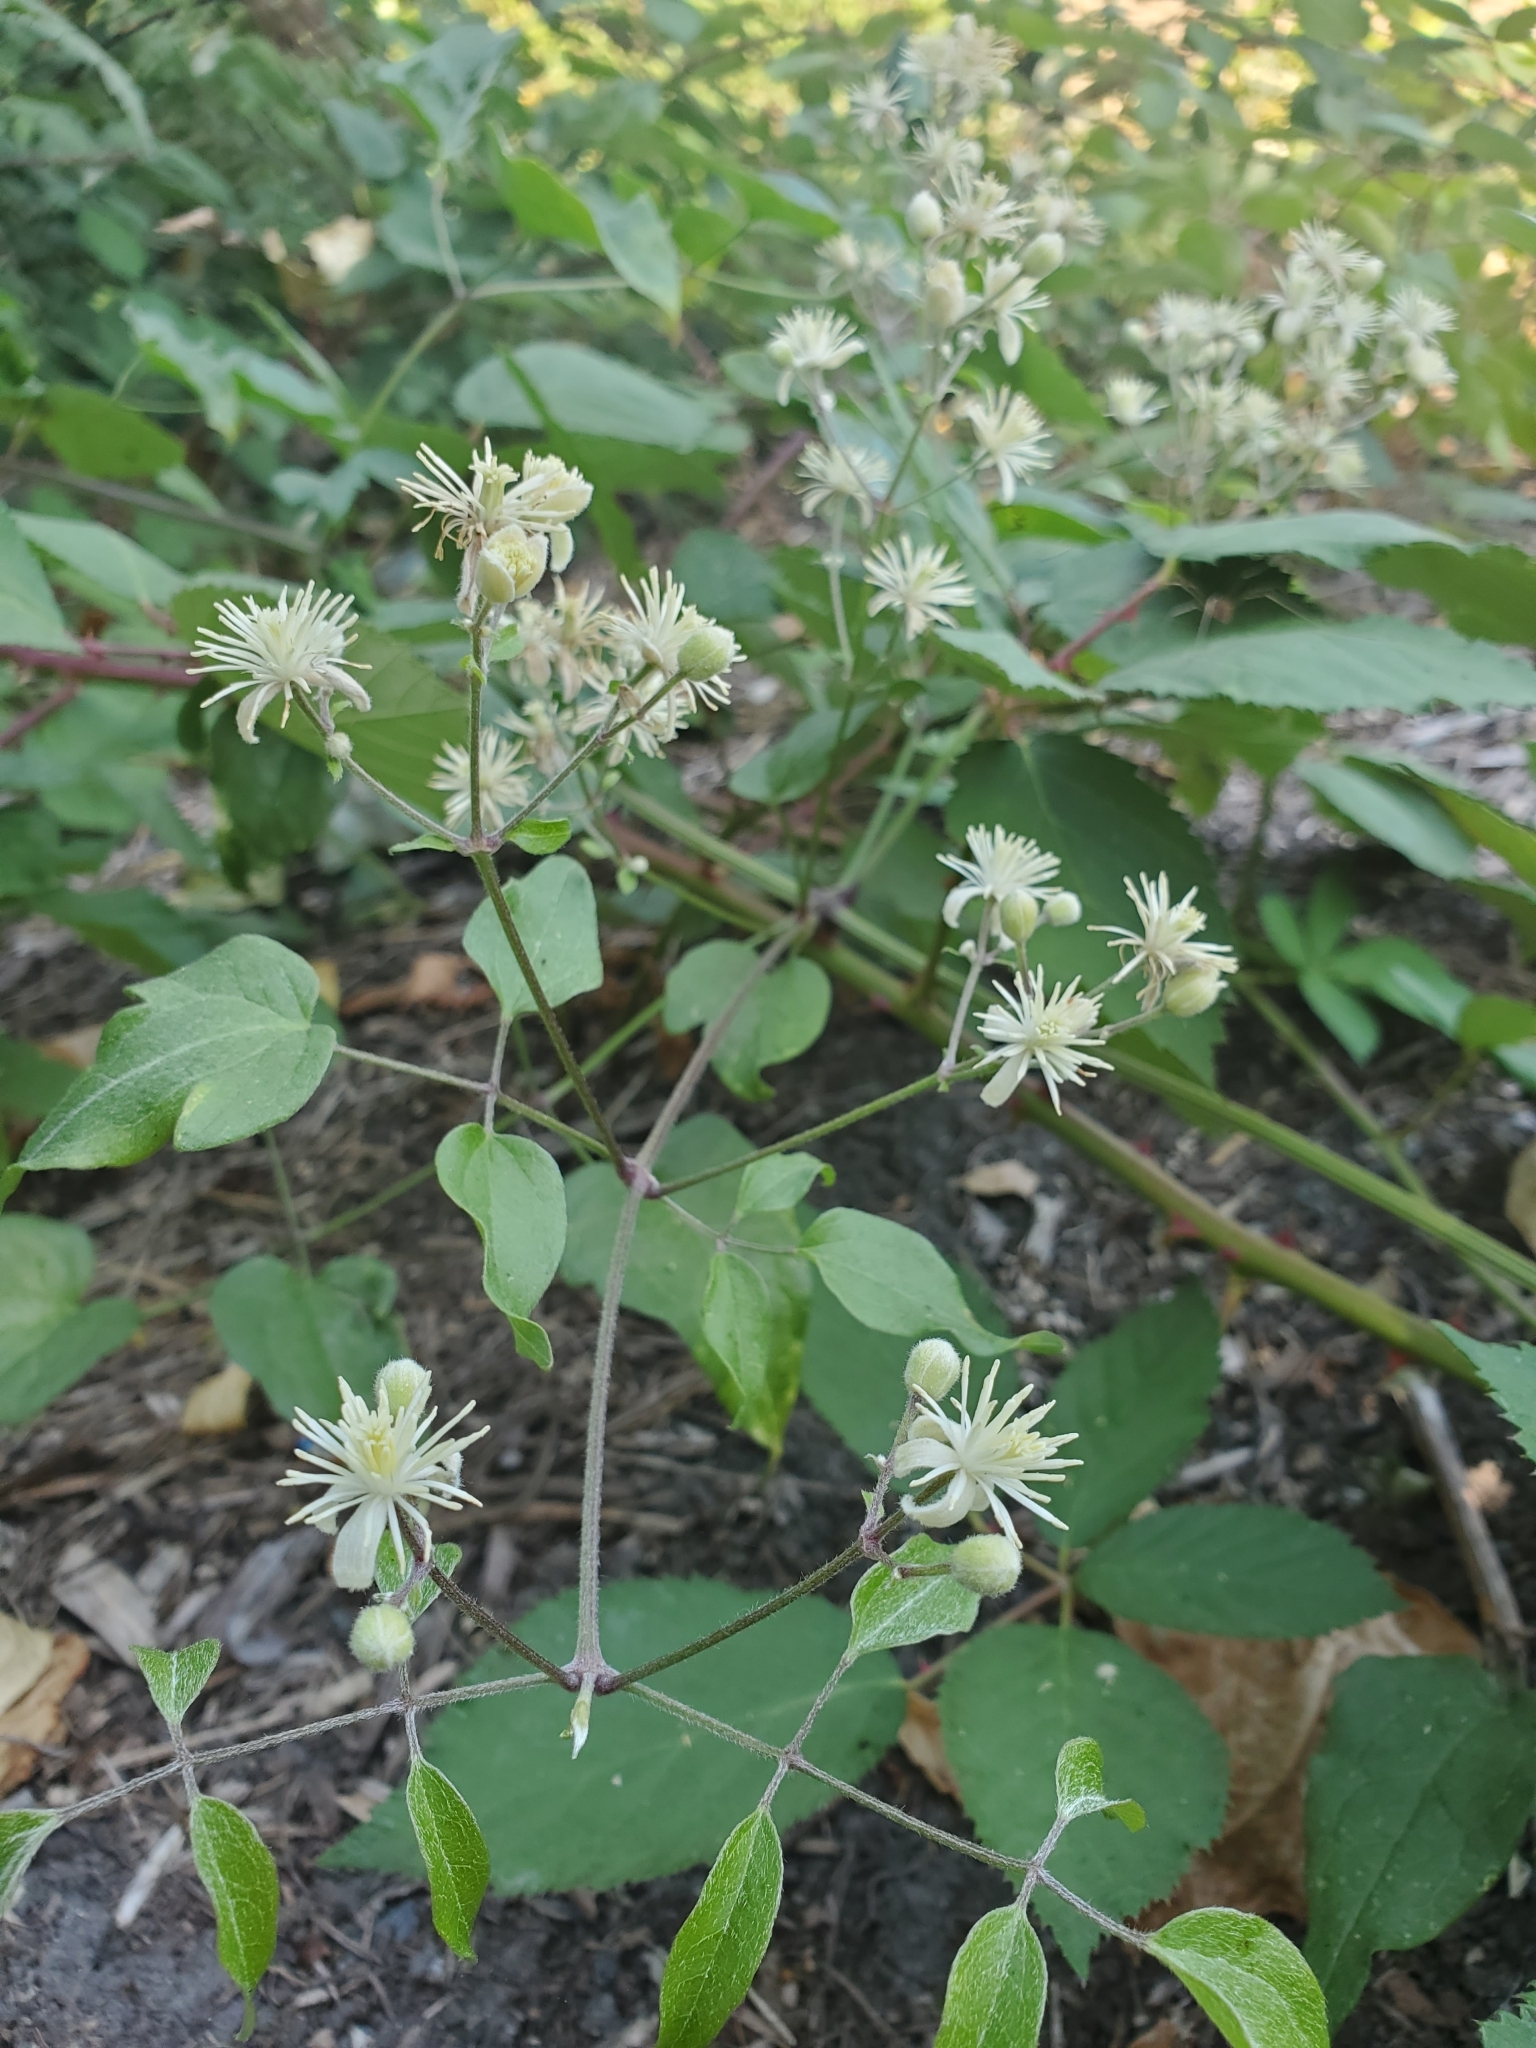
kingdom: Plantae
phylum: Tracheophyta
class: Magnoliopsida
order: Ranunculales
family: Ranunculaceae
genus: Clematis
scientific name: Clematis vitalba
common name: Evergreen clematis
